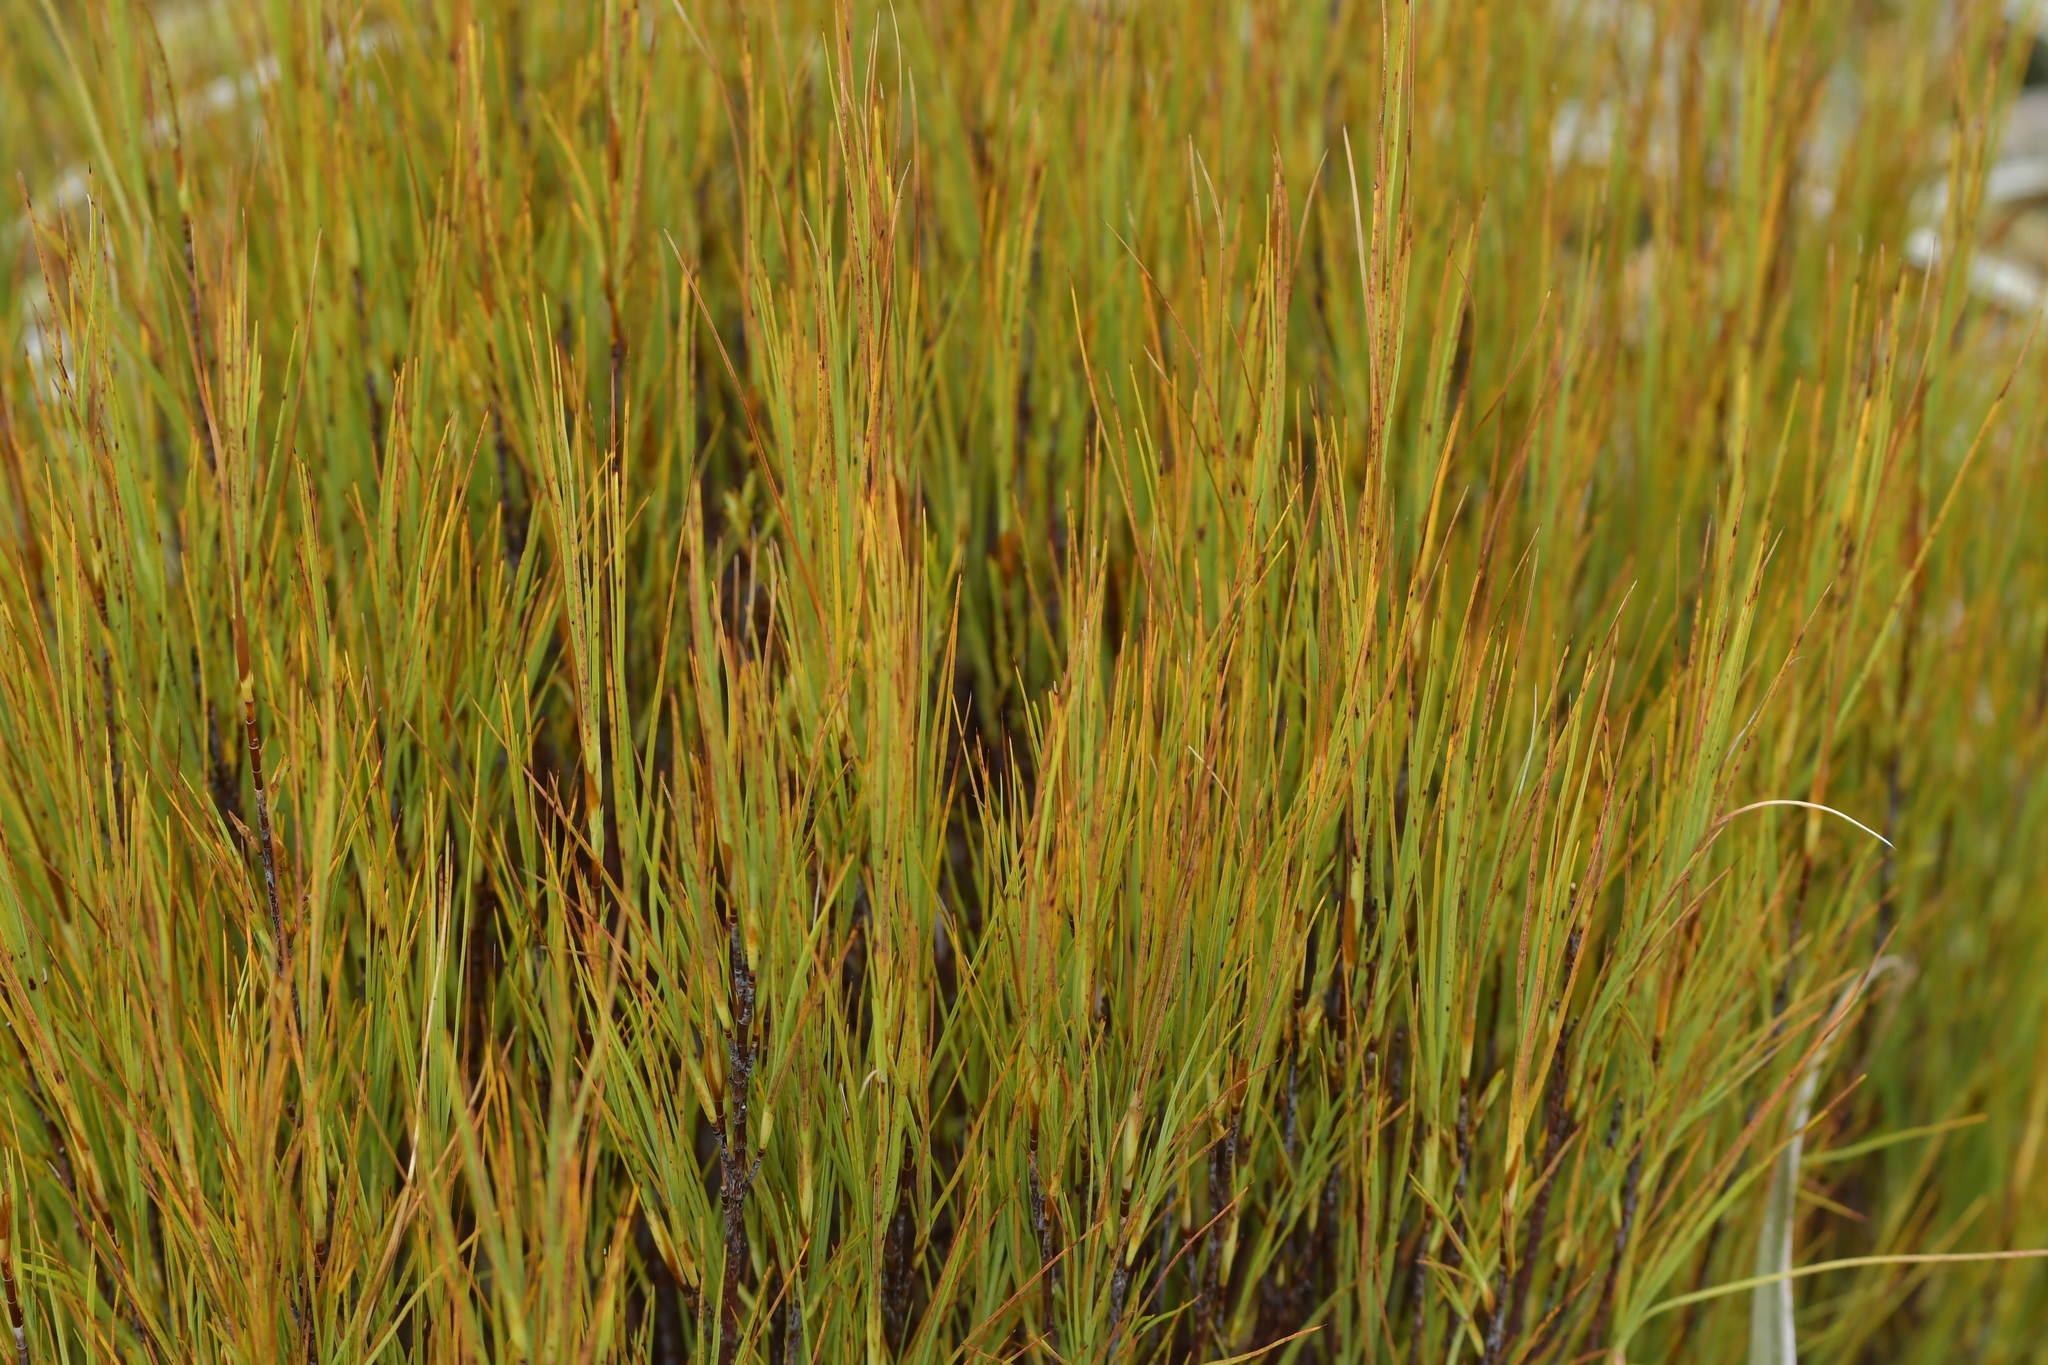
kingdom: Plantae
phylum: Tracheophyta
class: Magnoliopsida
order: Ericales
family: Ericaceae
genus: Dracophyllum
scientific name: Dracophyllum filifolium
